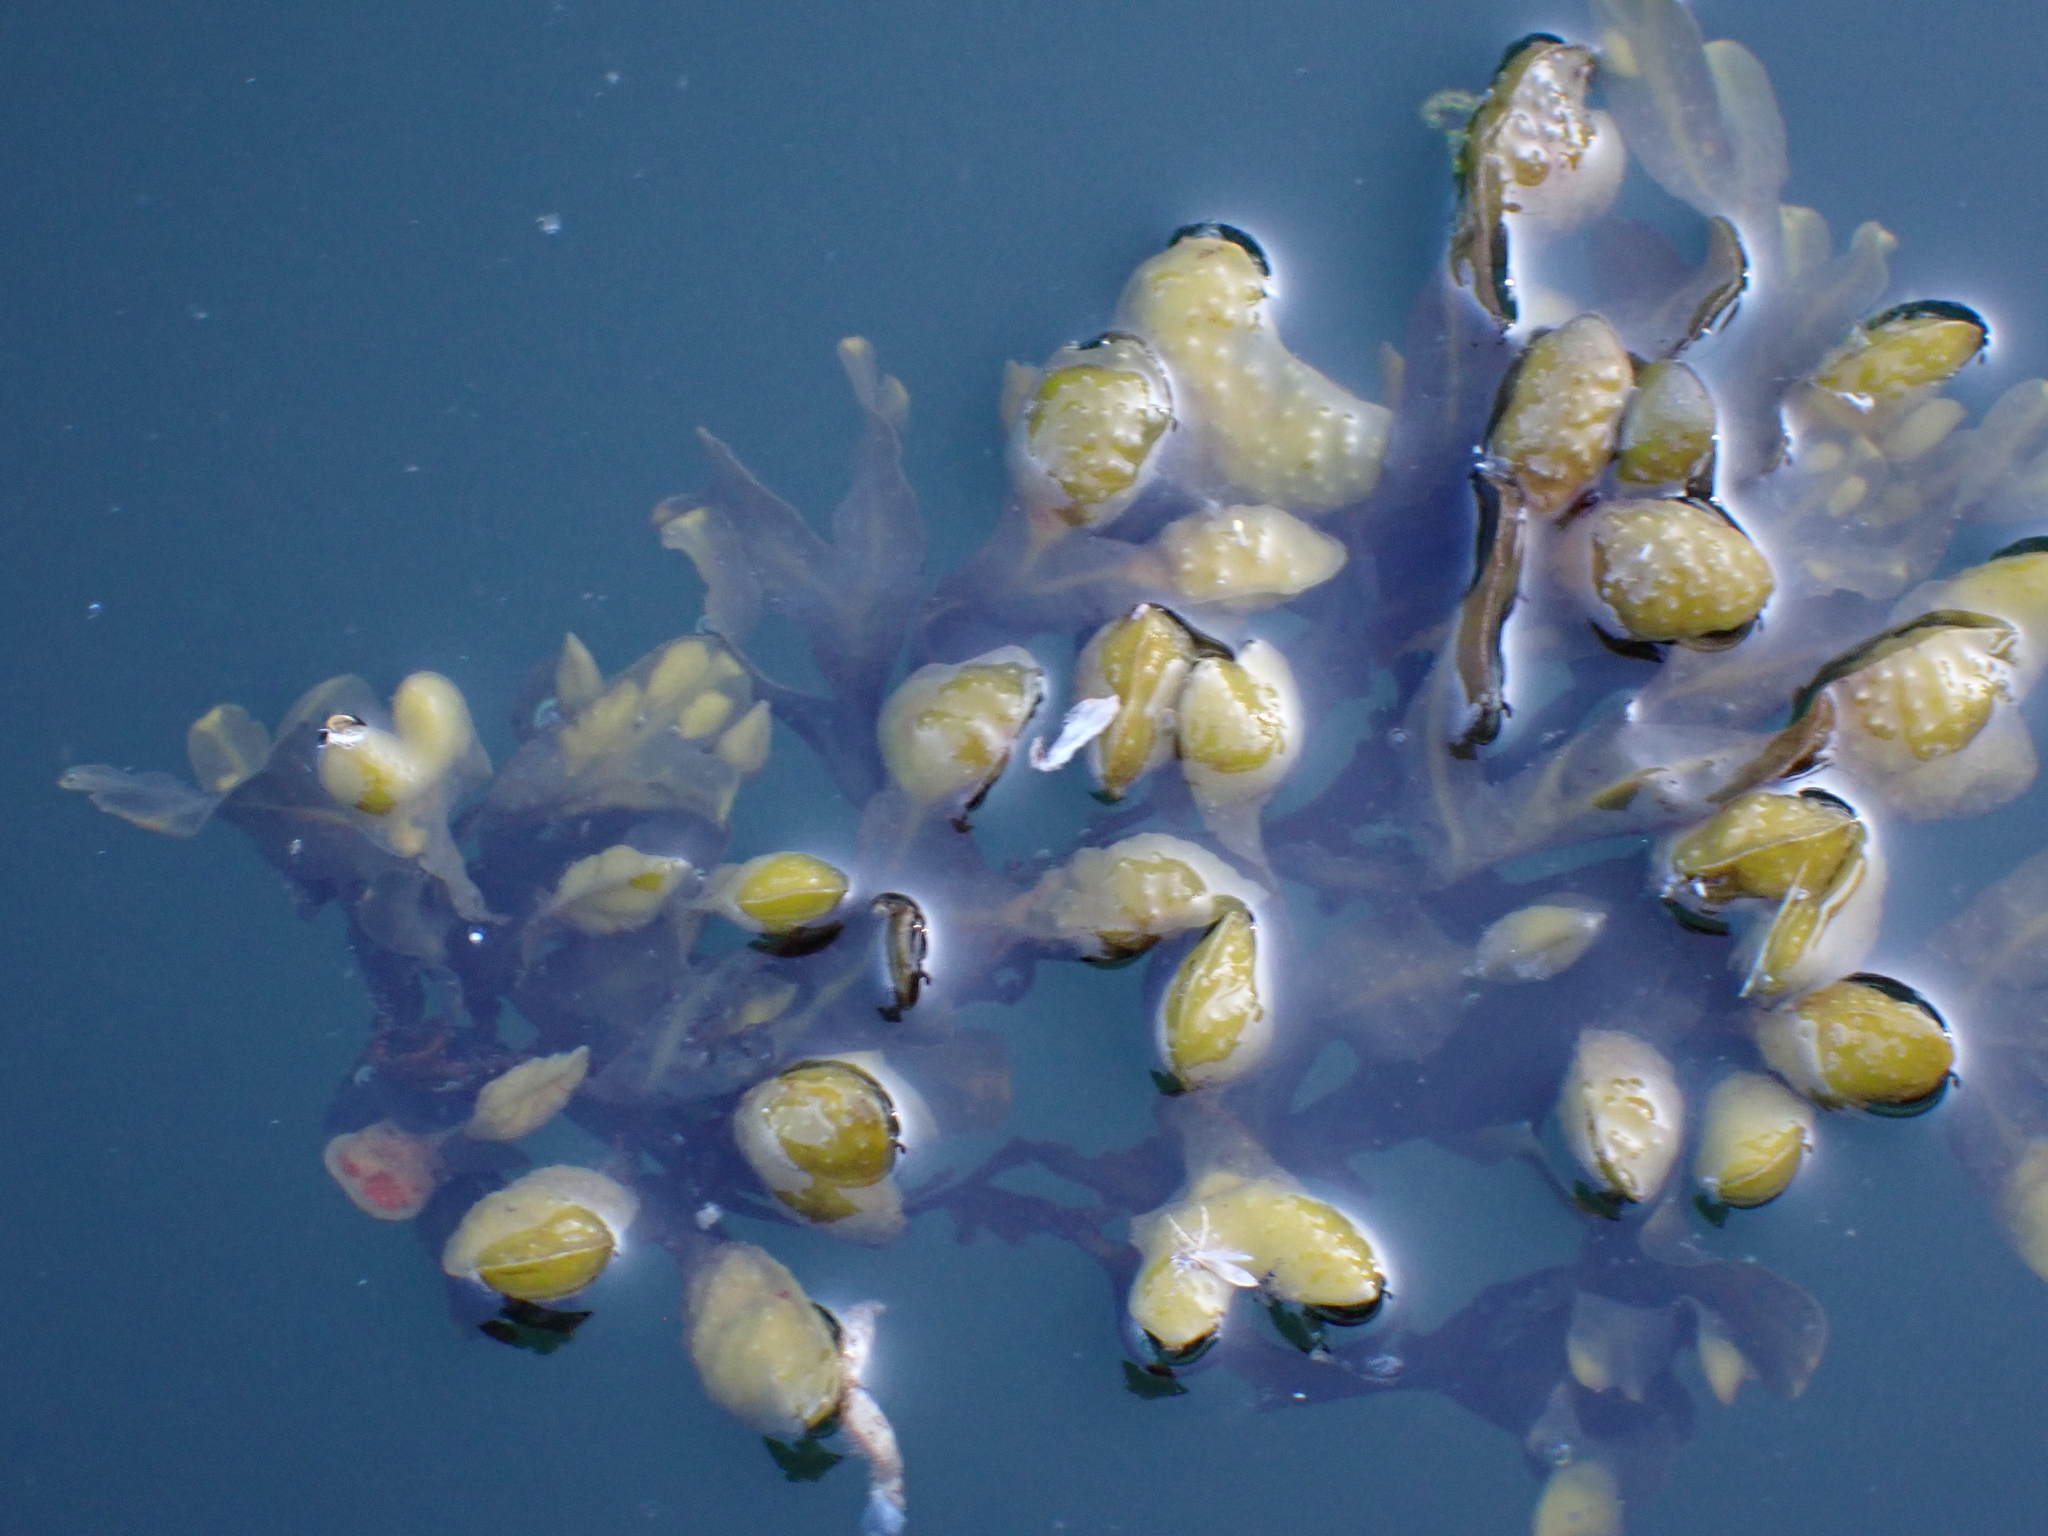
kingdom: Chromista
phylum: Ochrophyta
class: Phaeophyceae
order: Fucales
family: Fucaceae
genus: Fucus
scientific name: Fucus distichus
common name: Rockweed
